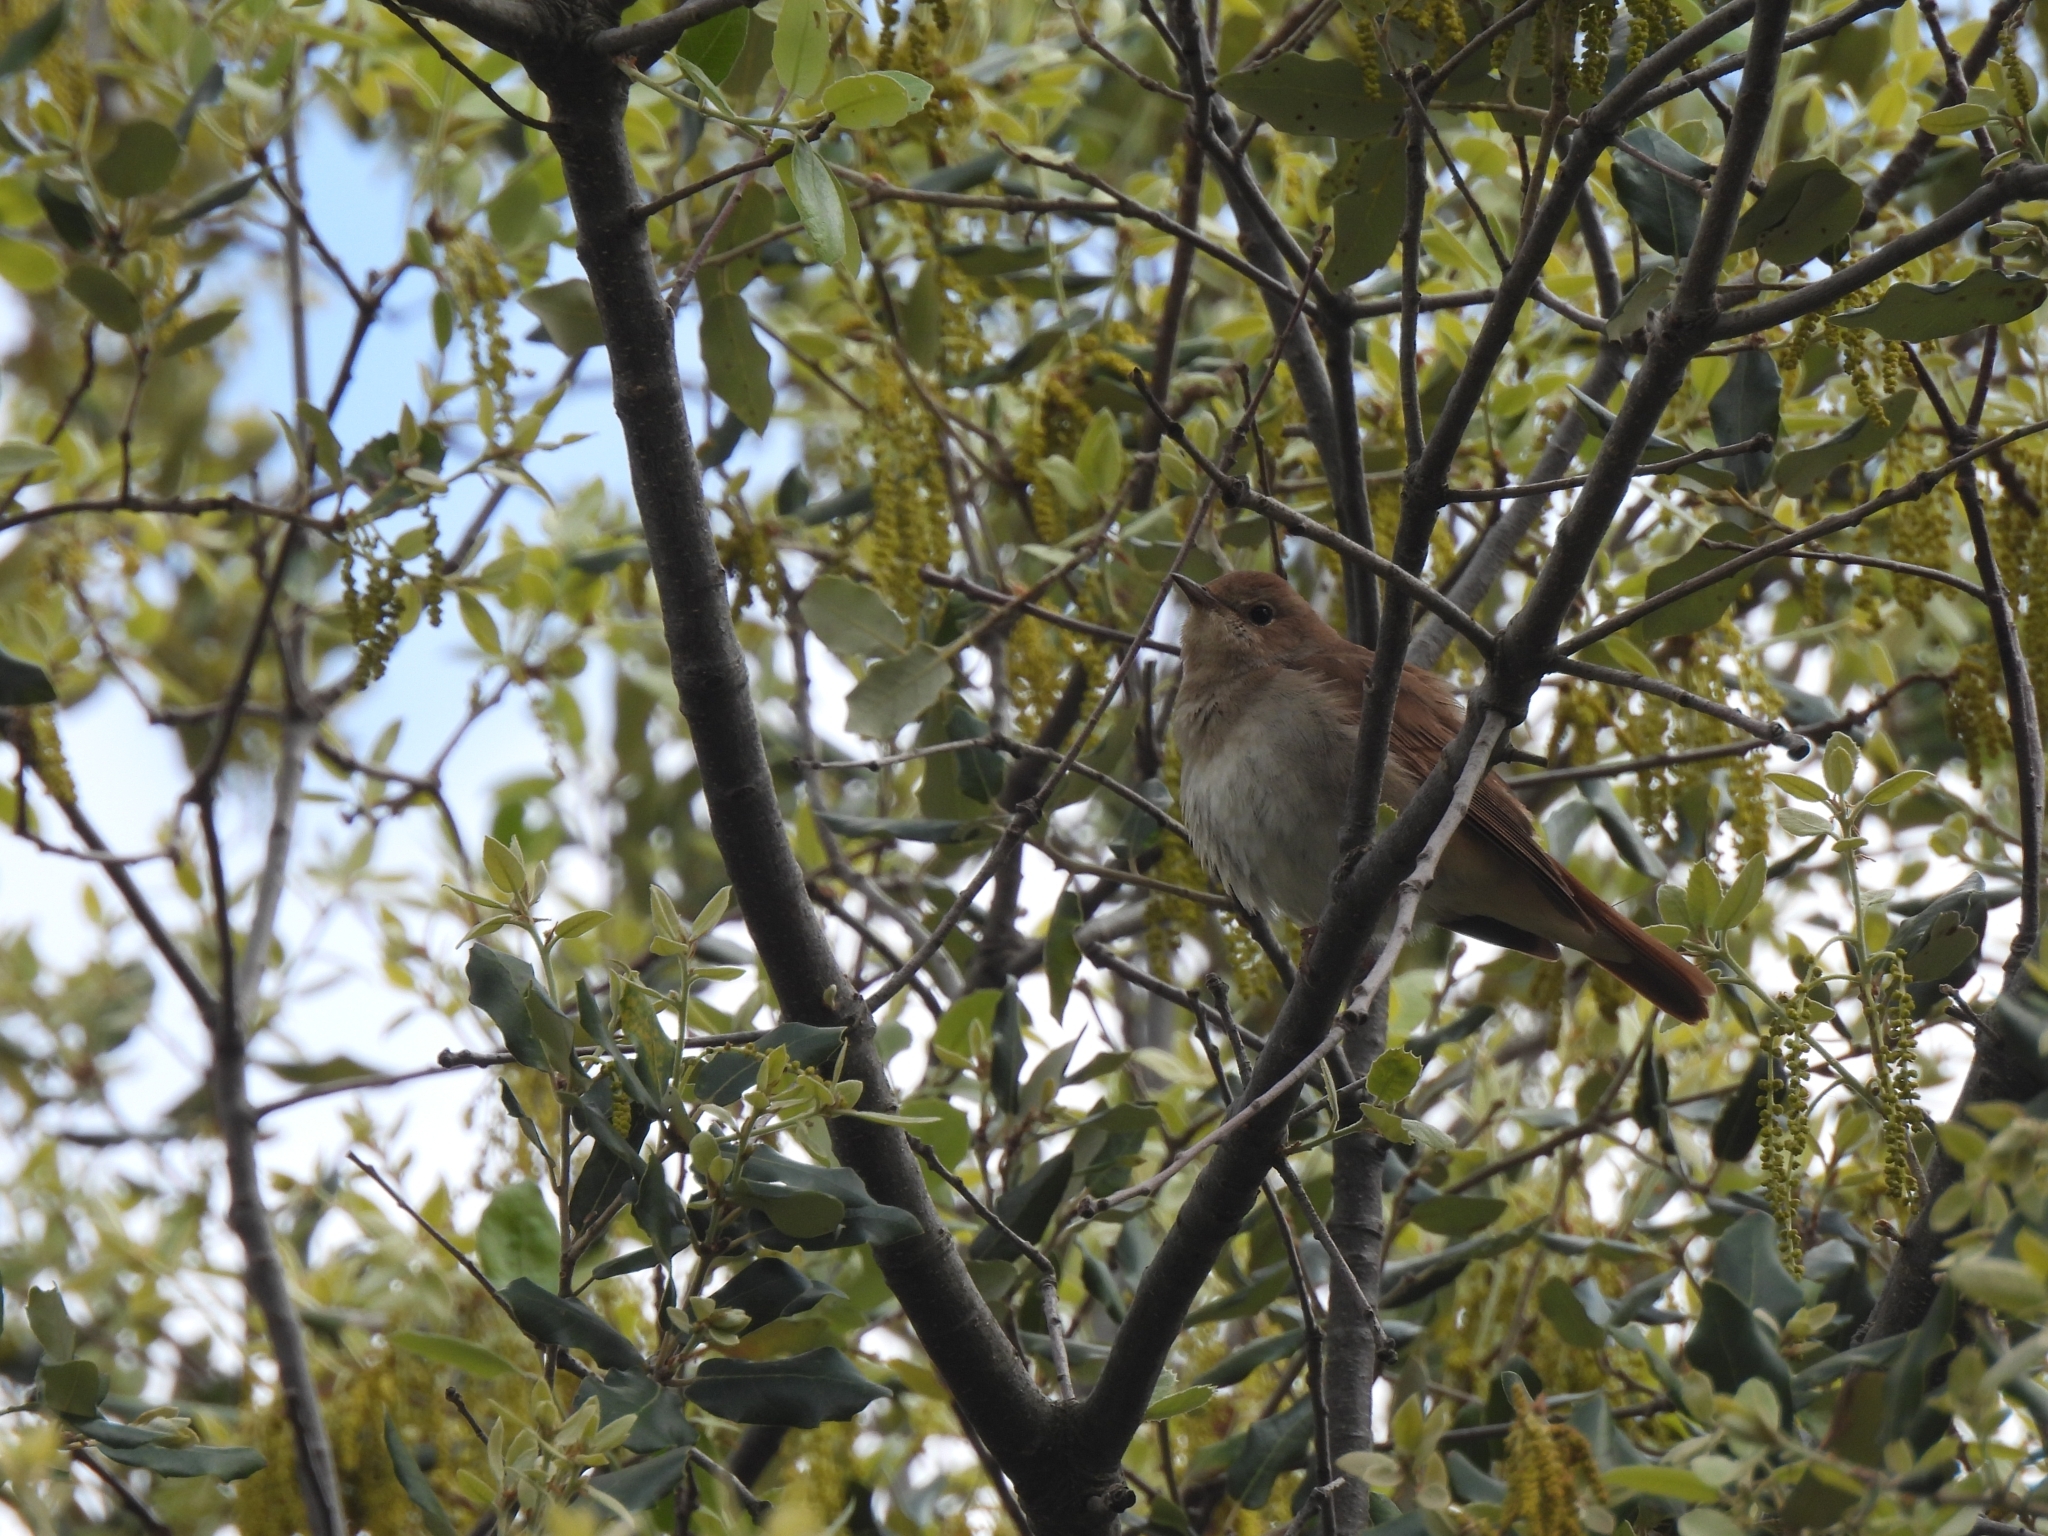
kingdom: Animalia
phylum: Chordata
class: Aves
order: Passeriformes
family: Muscicapidae
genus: Luscinia
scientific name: Luscinia megarhynchos
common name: Common nightingale
